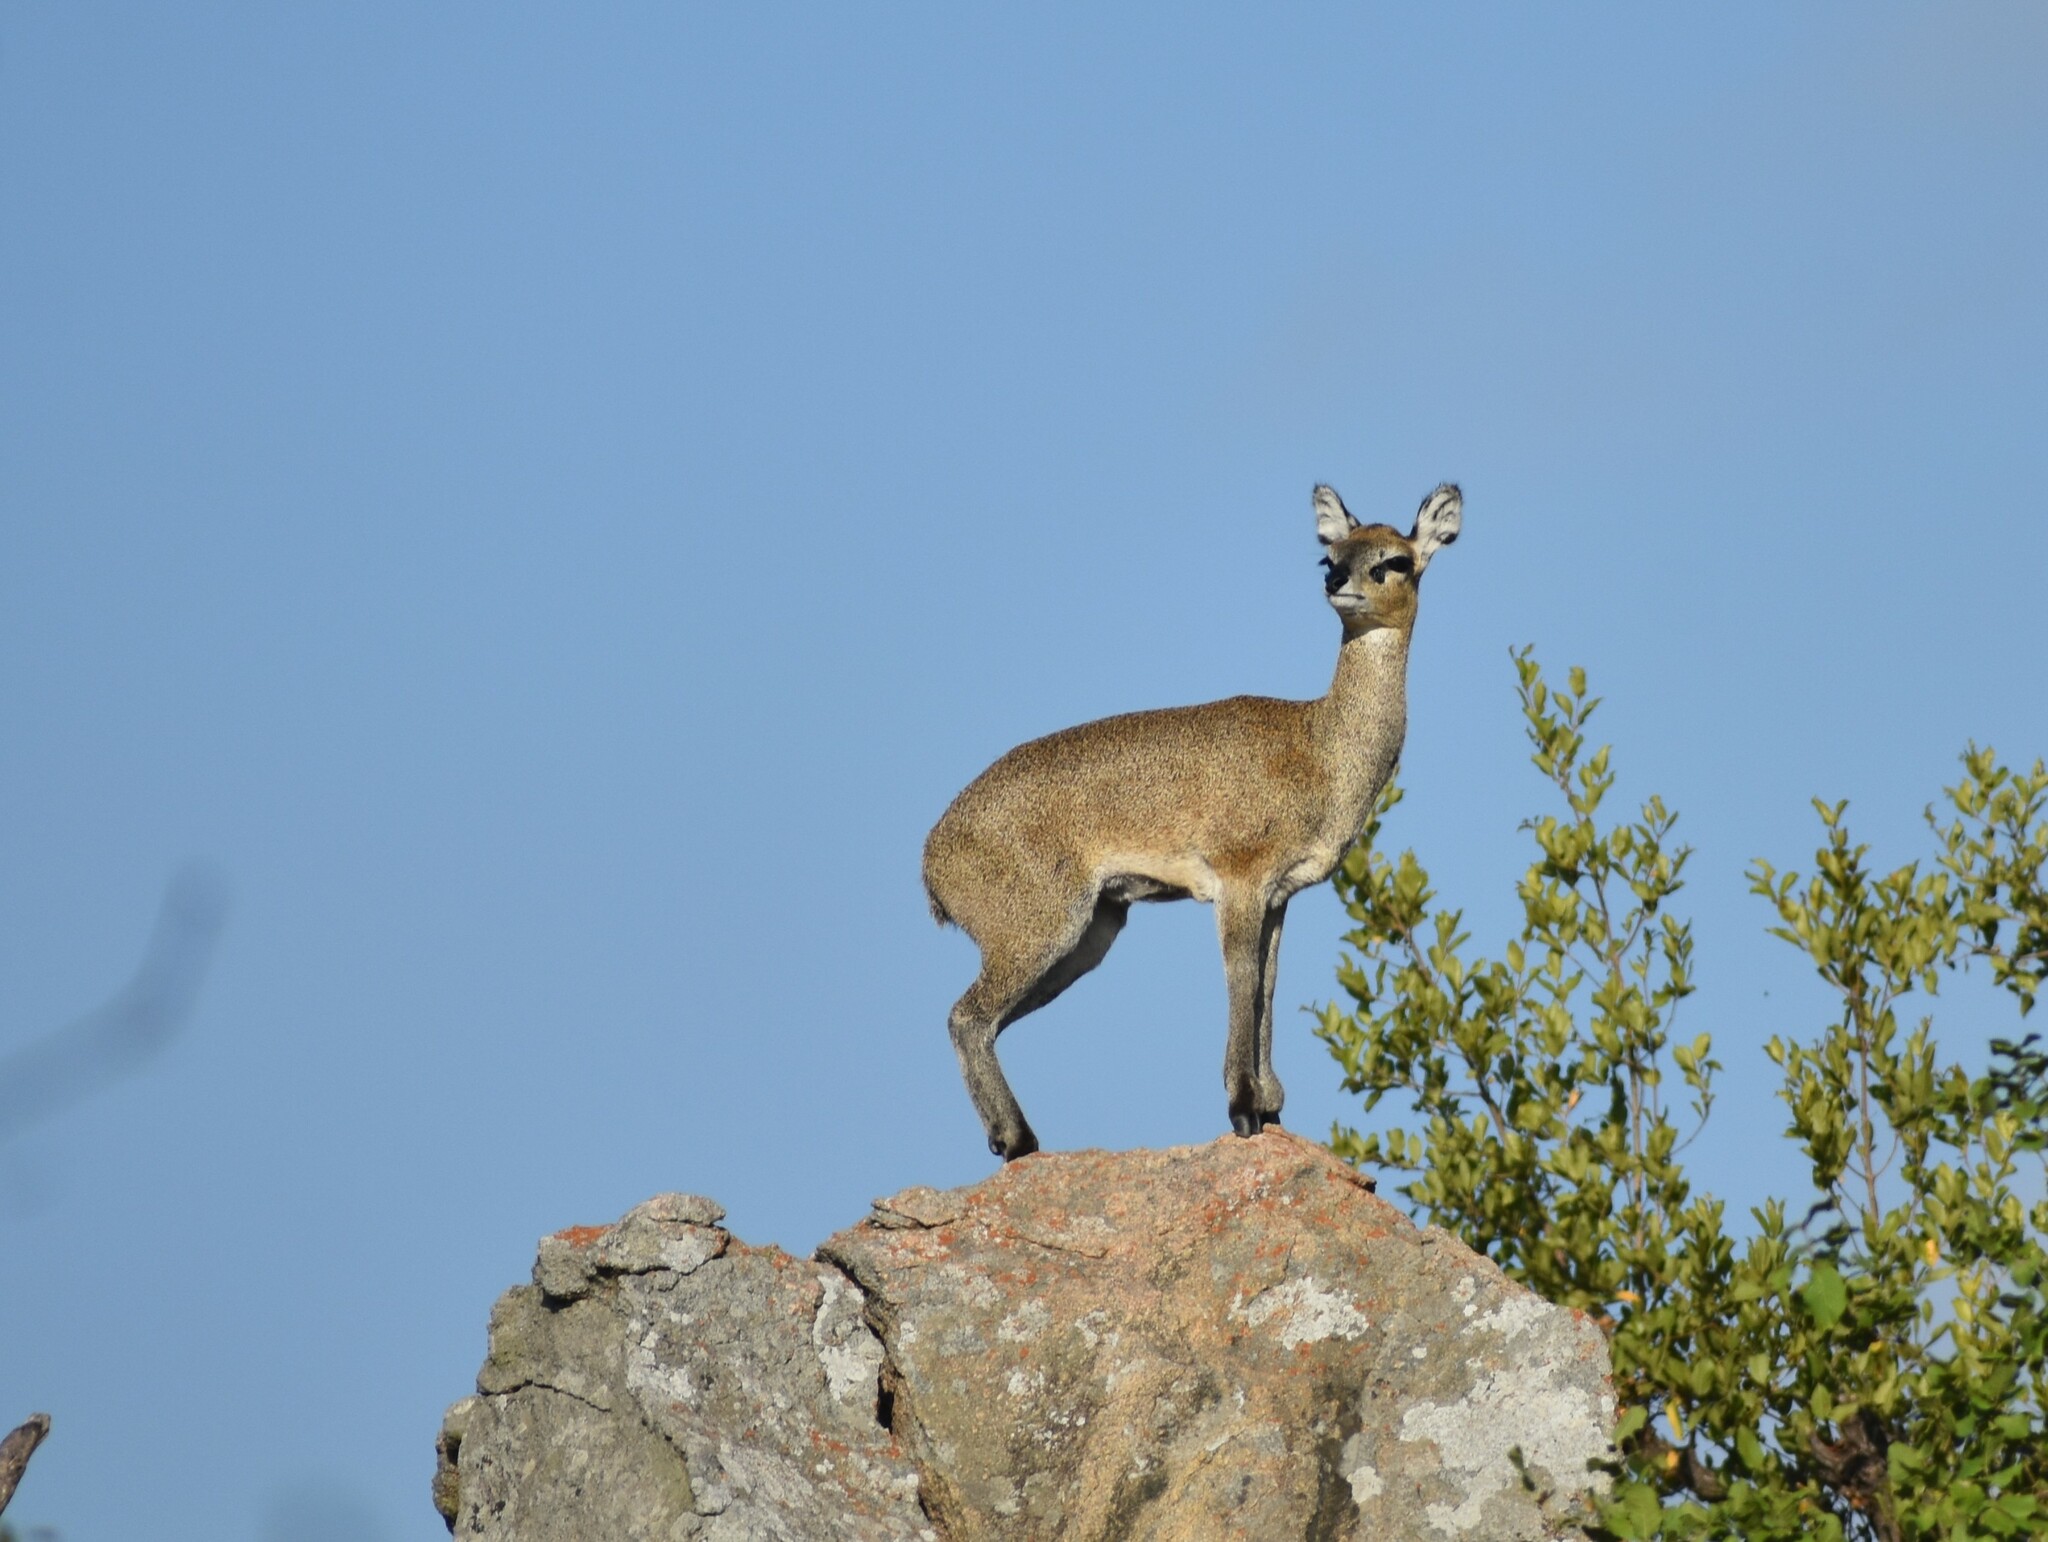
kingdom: Animalia
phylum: Chordata
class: Mammalia
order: Artiodactyla
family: Bovidae
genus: Oreotragus
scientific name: Oreotragus oreotragus
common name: Klipspringer
